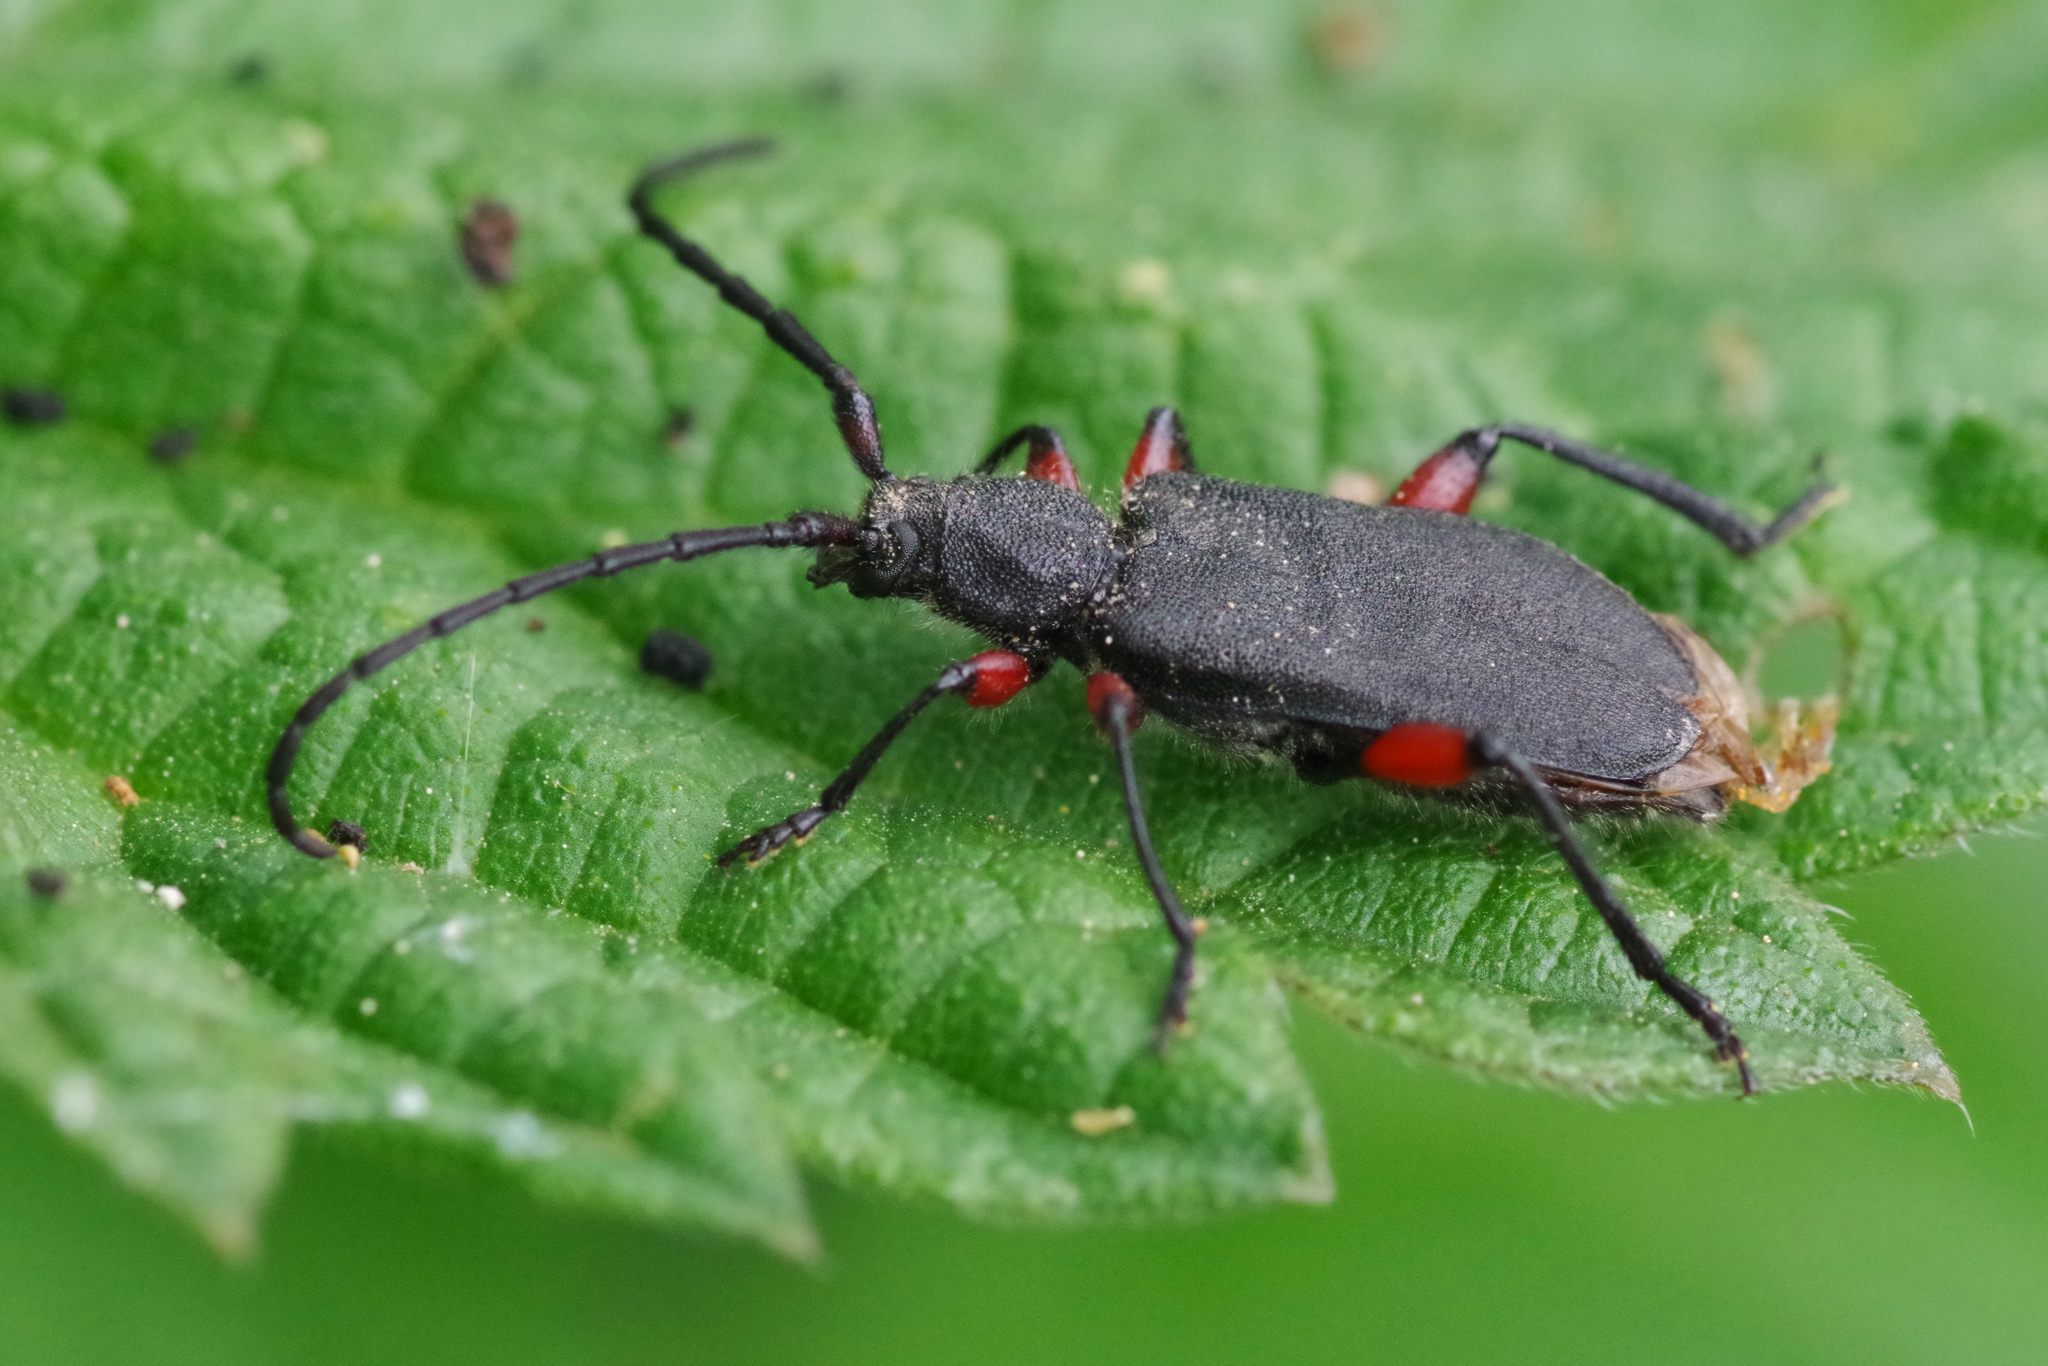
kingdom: Animalia
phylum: Arthropoda
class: Insecta
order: Coleoptera
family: Cerambycidae
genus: Ropalopus
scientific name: Ropalopus femoratus
